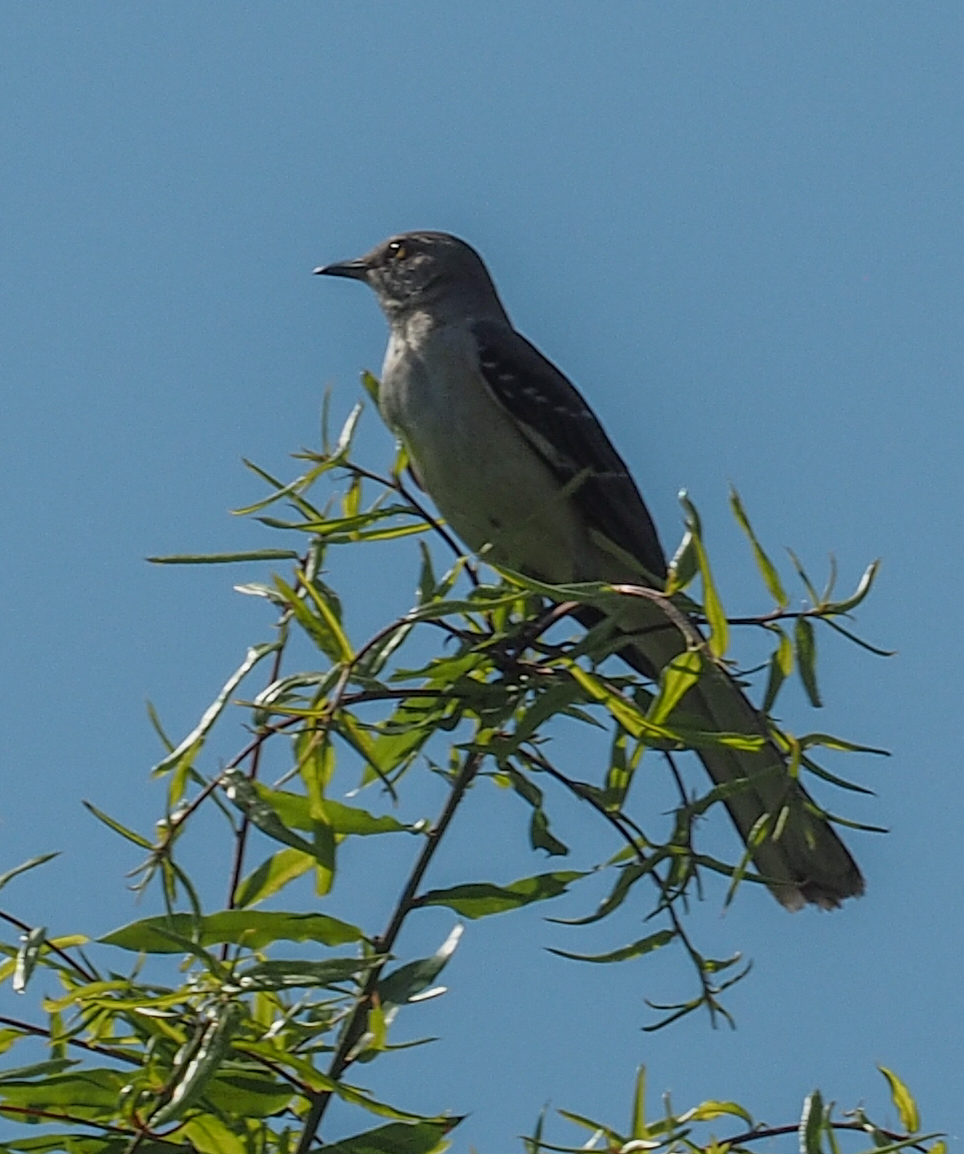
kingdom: Animalia
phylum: Chordata
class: Aves
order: Passeriformes
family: Mimidae
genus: Mimus
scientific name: Mimus polyglottos
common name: Northern mockingbird
